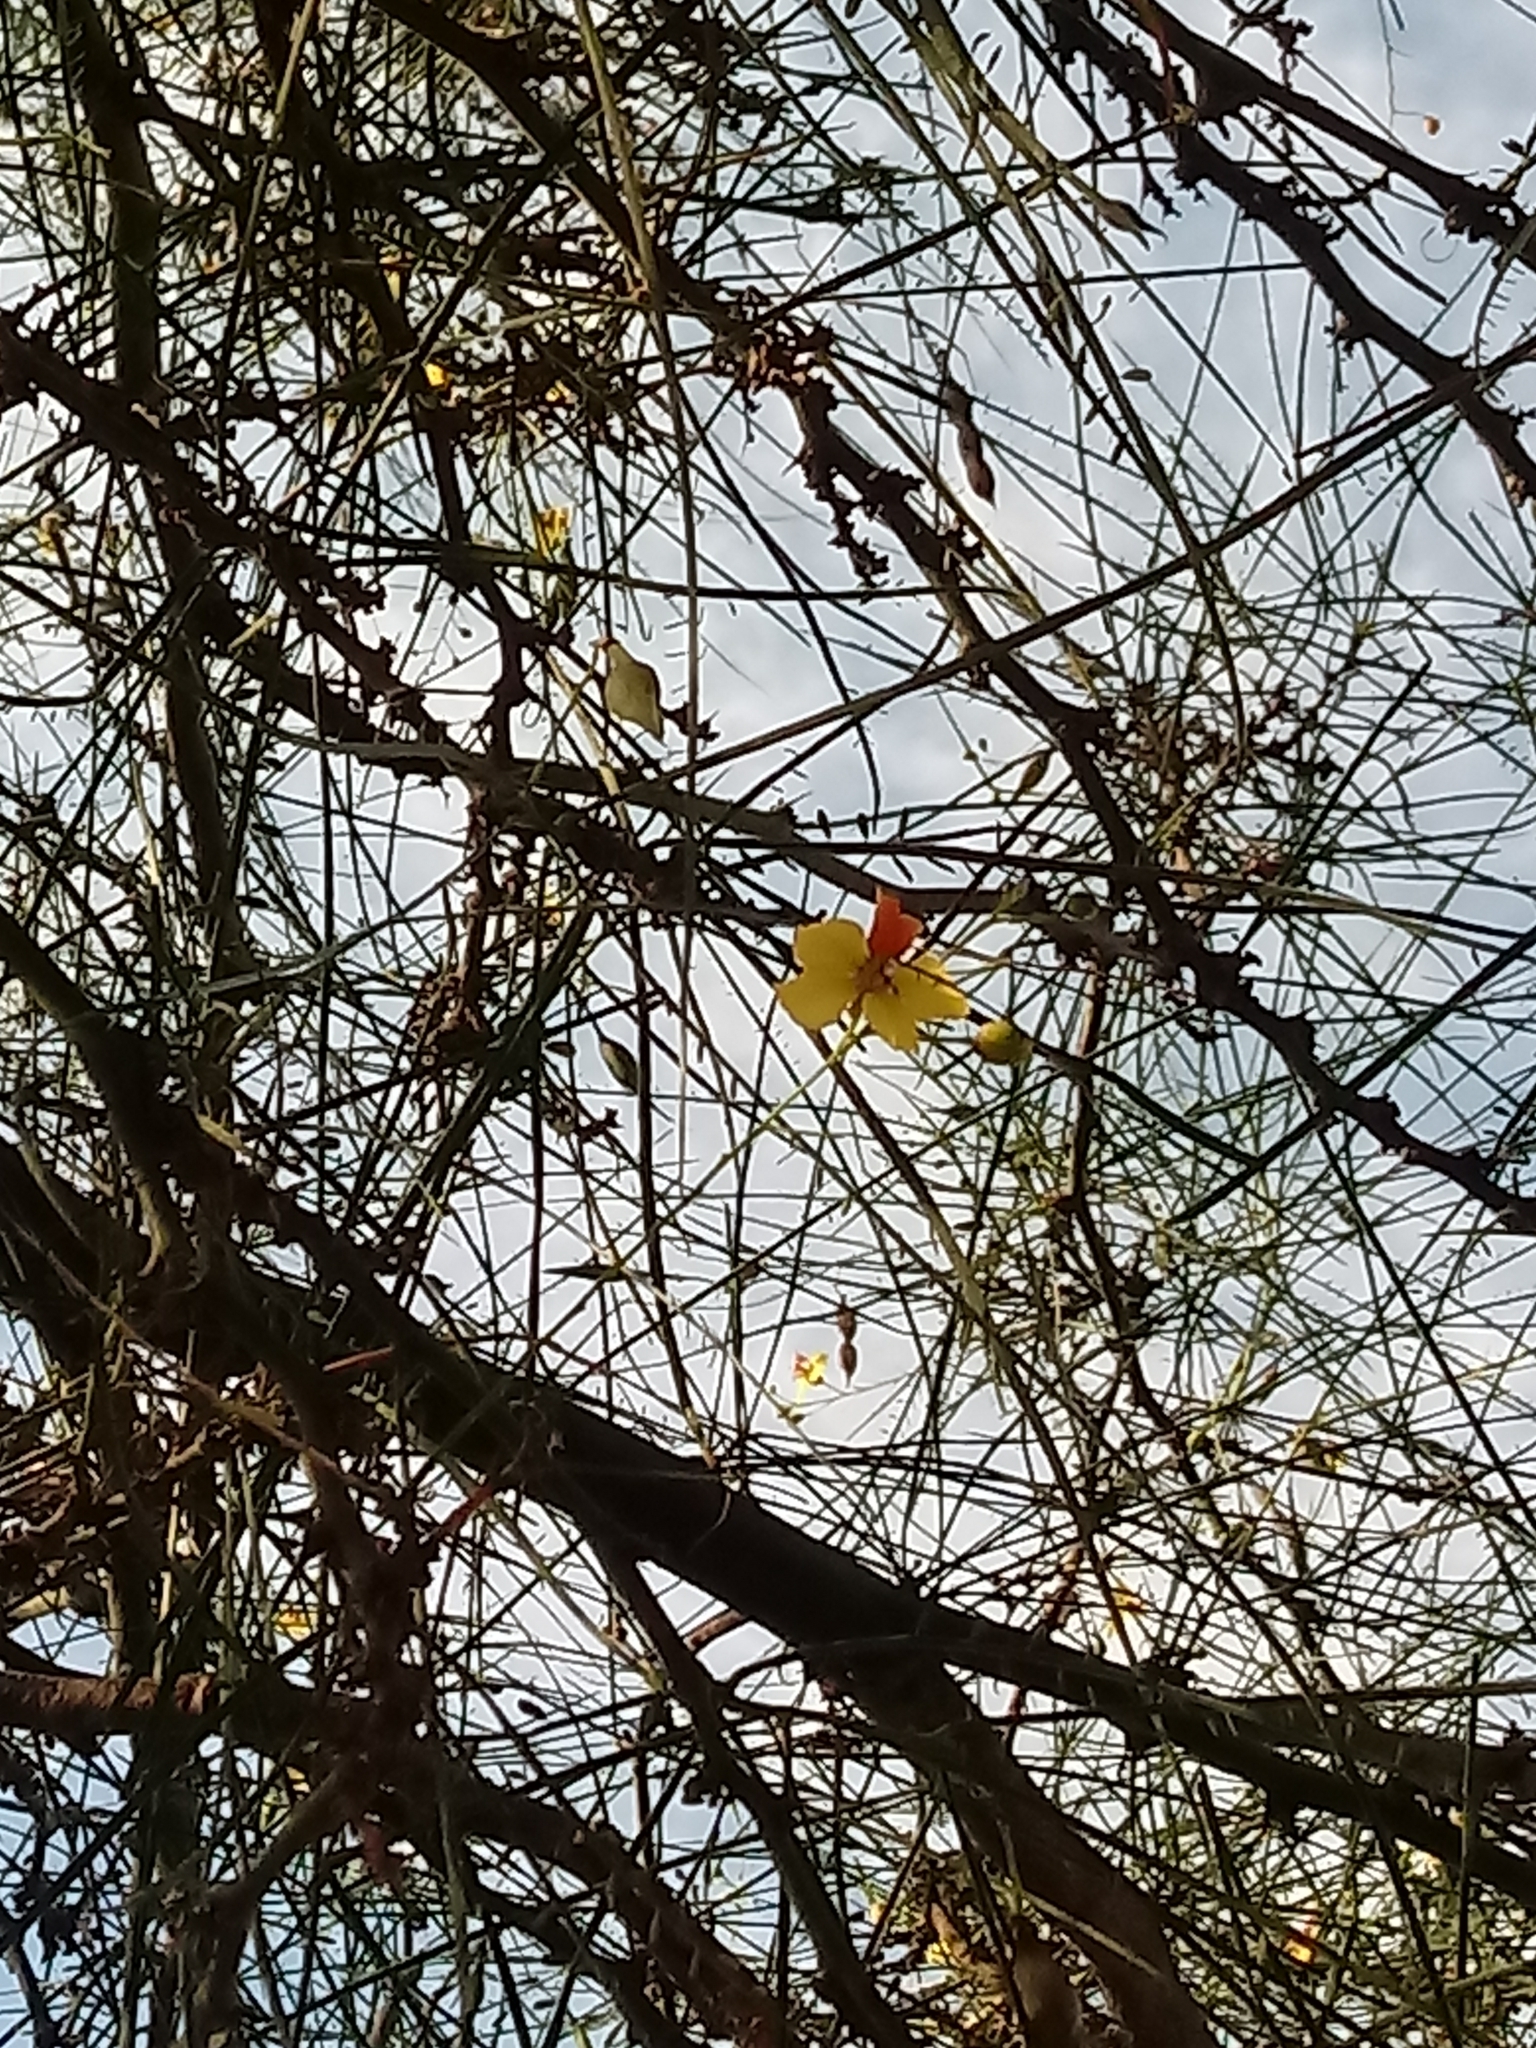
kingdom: Plantae
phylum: Tracheophyta
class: Magnoliopsida
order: Fabales
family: Fabaceae
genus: Parkinsonia
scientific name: Parkinsonia aculeata
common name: Jerusalem thorn
